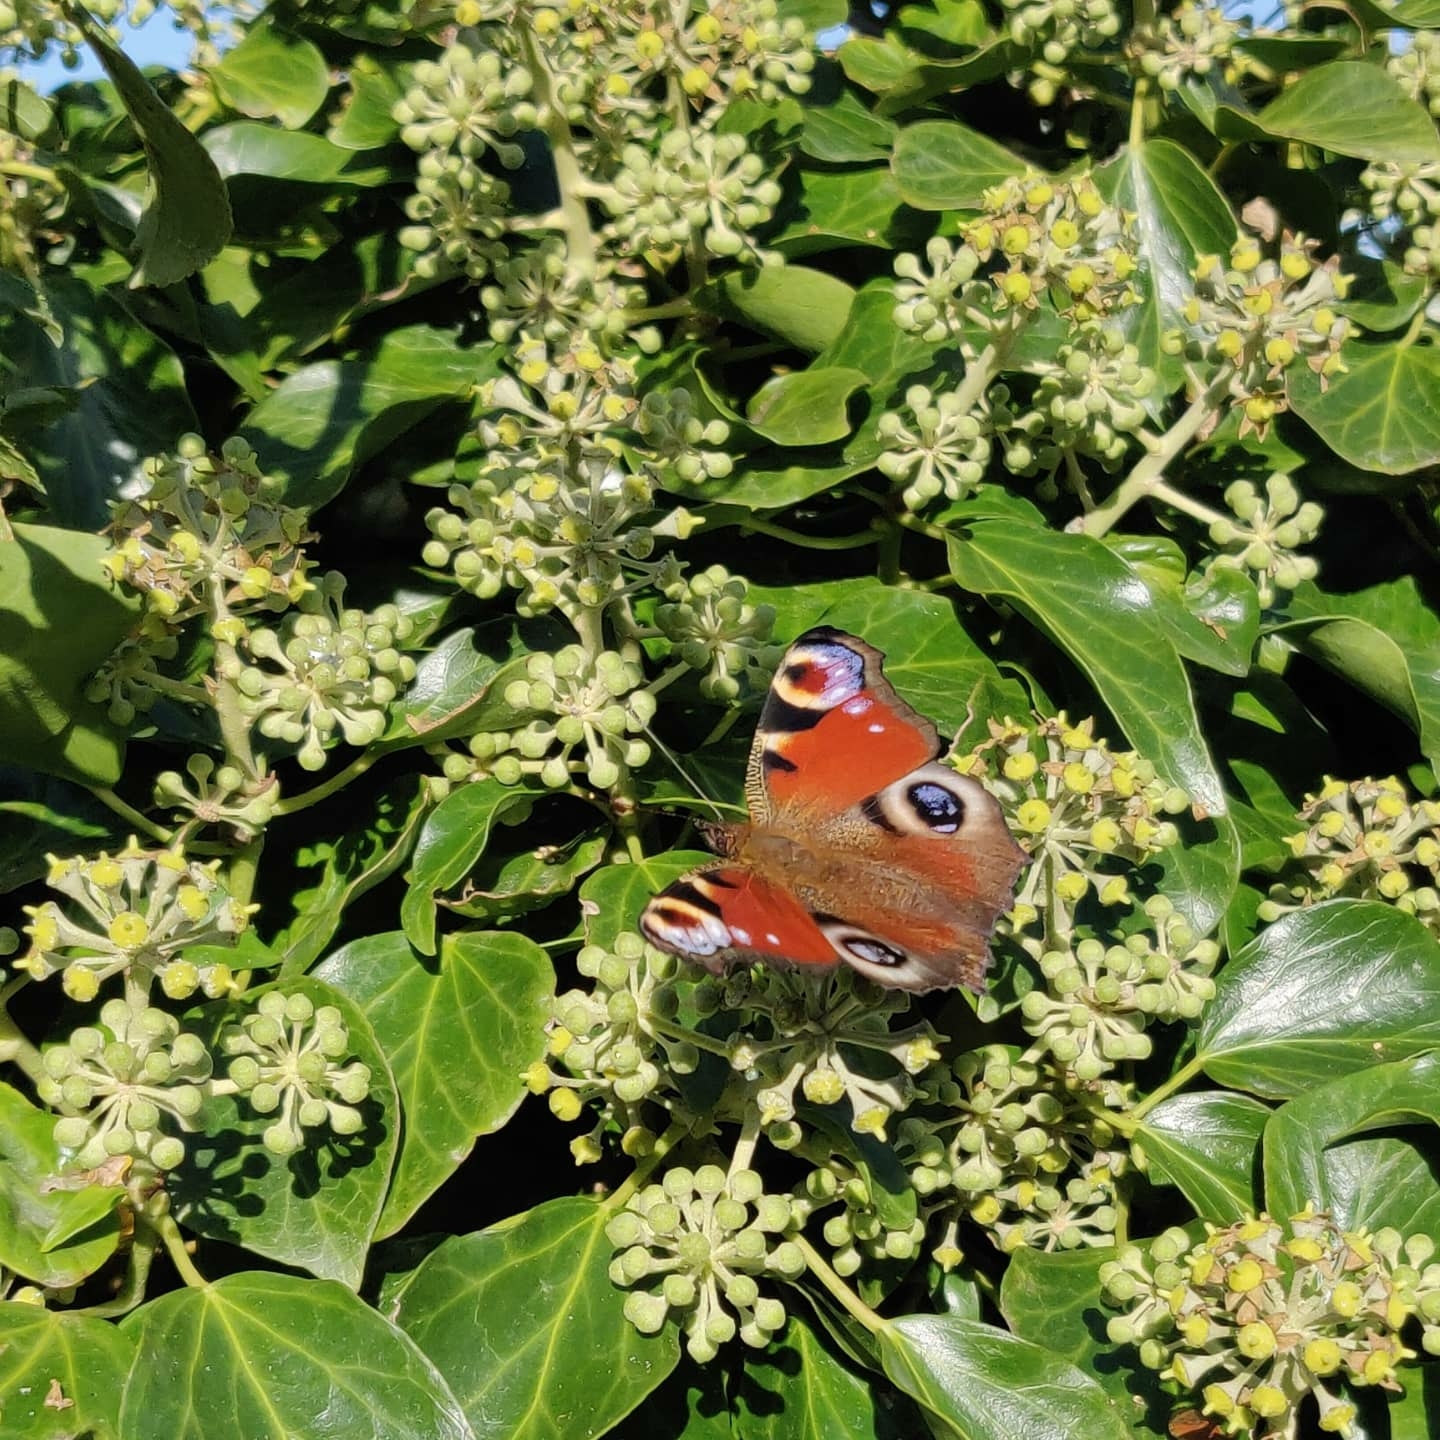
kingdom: Animalia
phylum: Arthropoda
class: Insecta
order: Lepidoptera
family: Nymphalidae
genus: Aglais
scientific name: Aglais io
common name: Peacock
